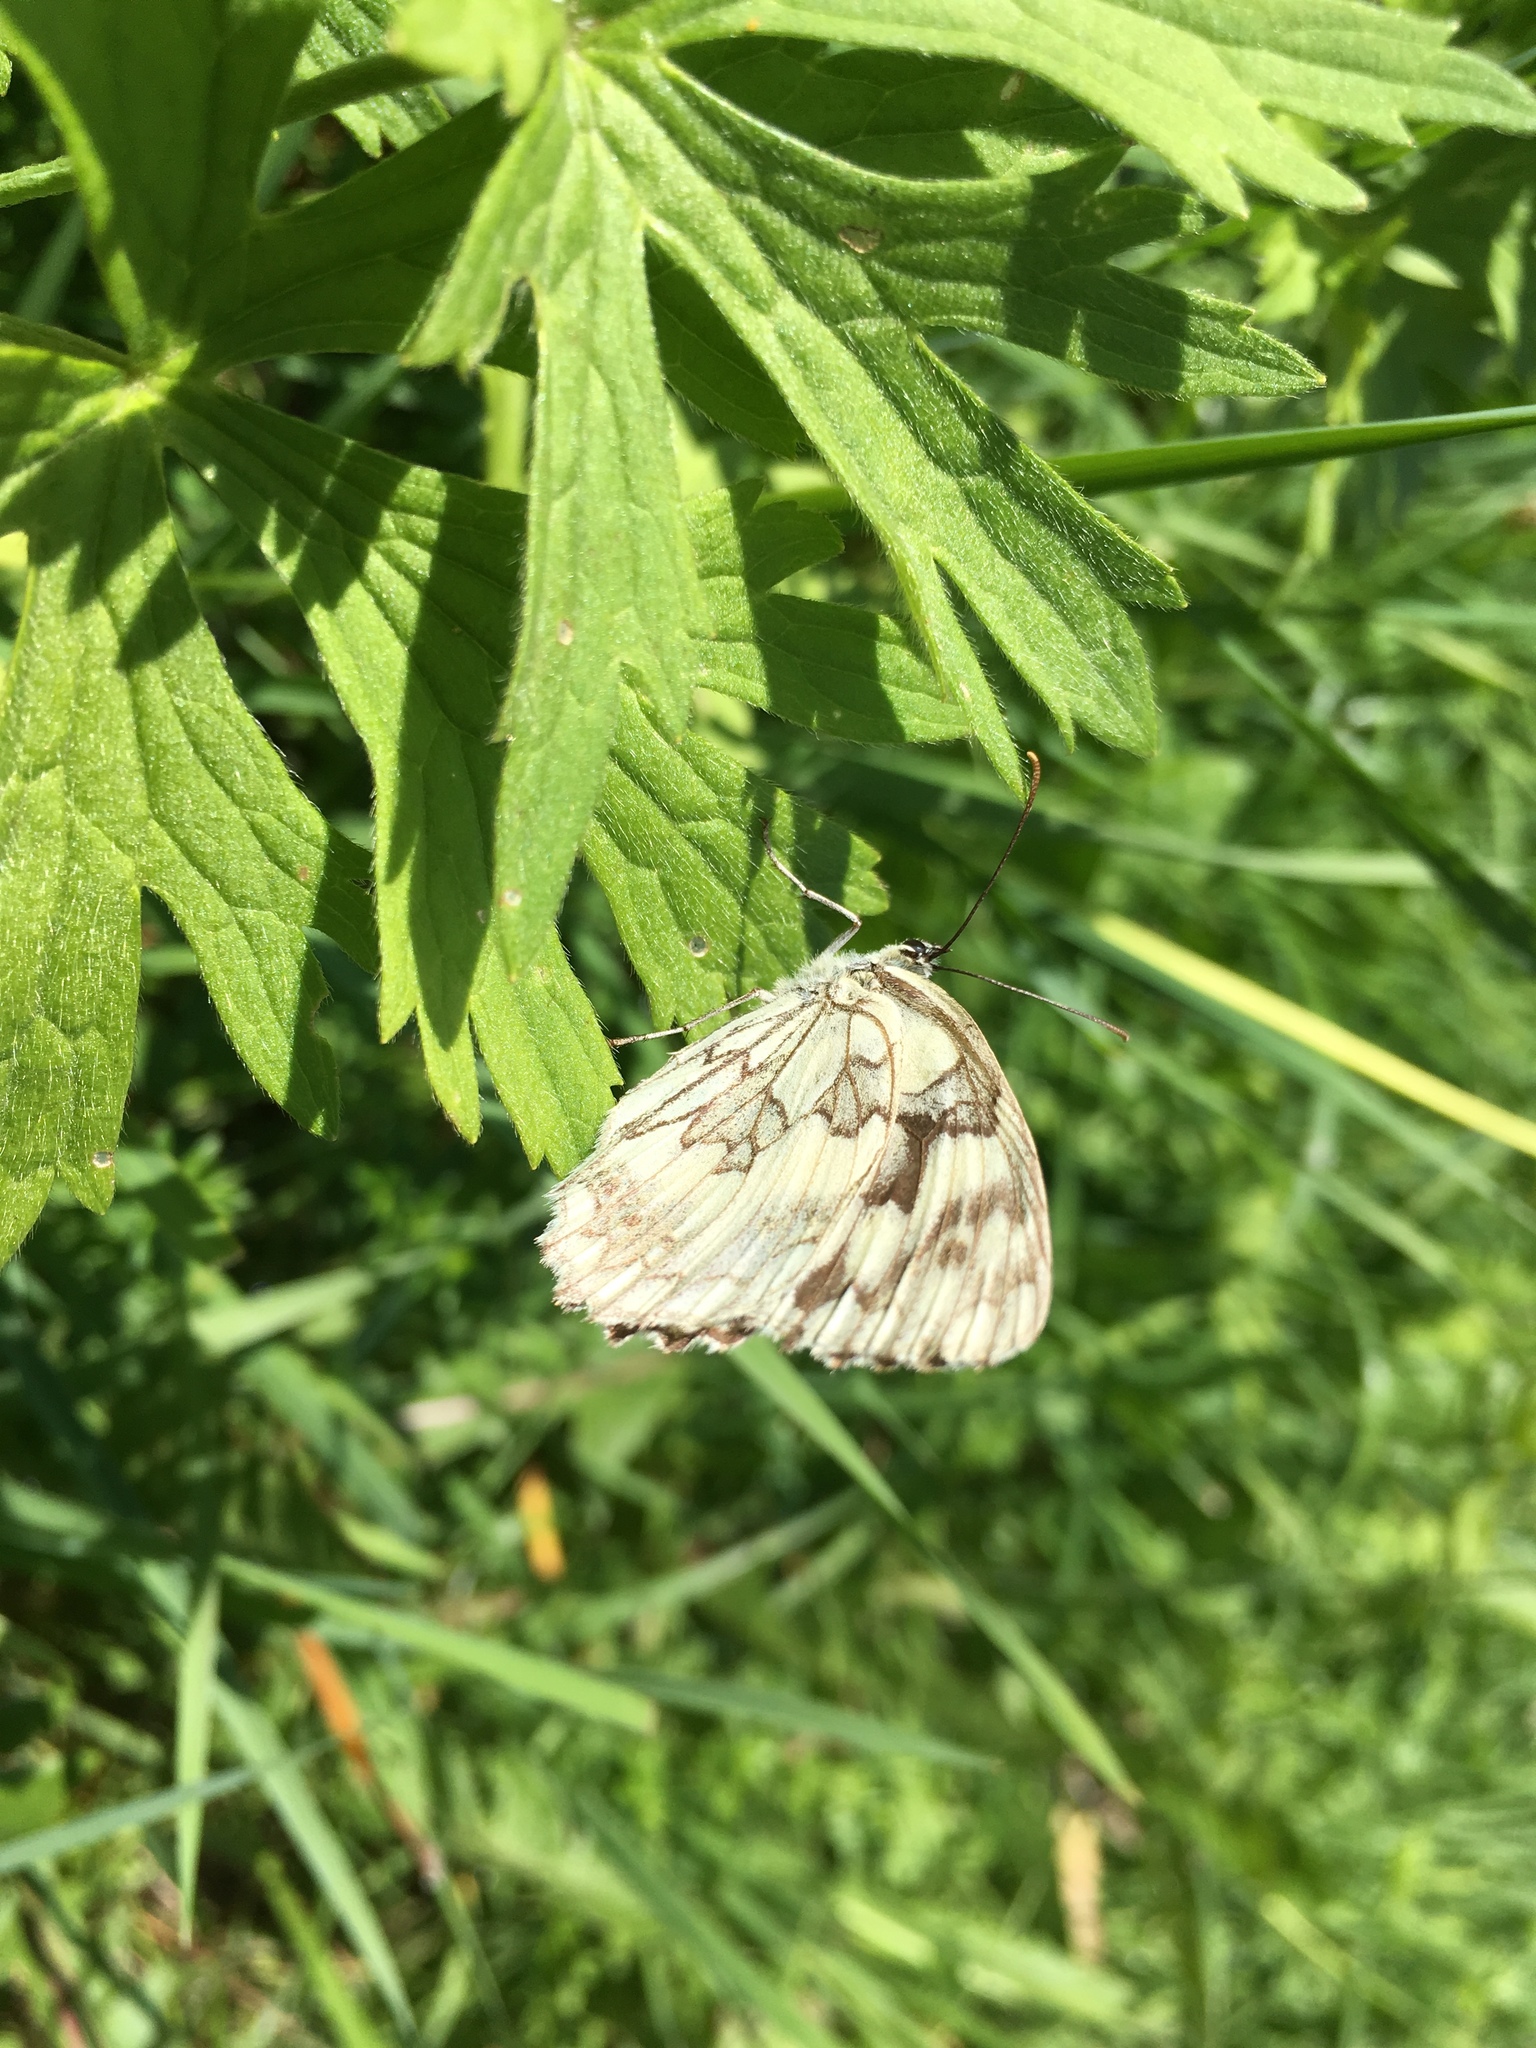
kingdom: Animalia
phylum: Arthropoda
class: Insecta
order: Lepidoptera
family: Nymphalidae
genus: Melanargia
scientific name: Melanargia galathea
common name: Marbled white
